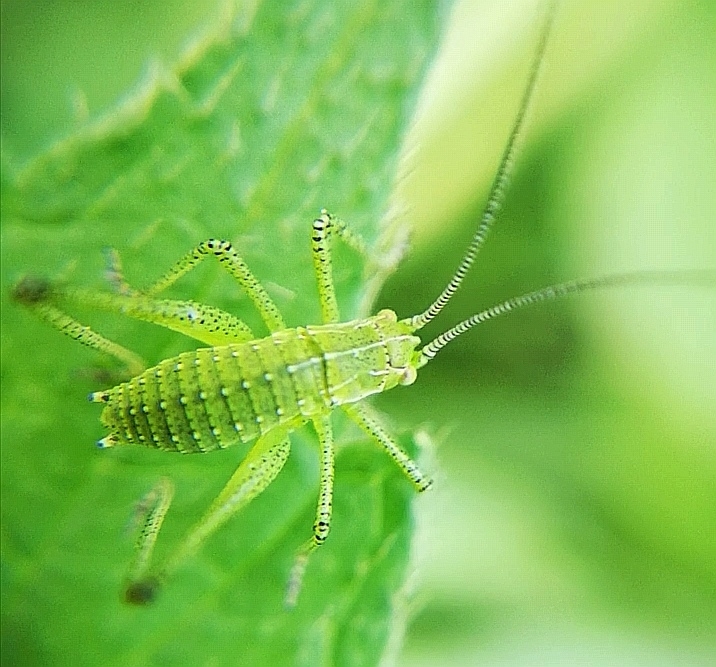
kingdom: Animalia
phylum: Arthropoda
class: Insecta
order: Orthoptera
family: Tettigoniidae
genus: Leptophyes
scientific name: Leptophyes albovittata
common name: Striped bush-cricket
